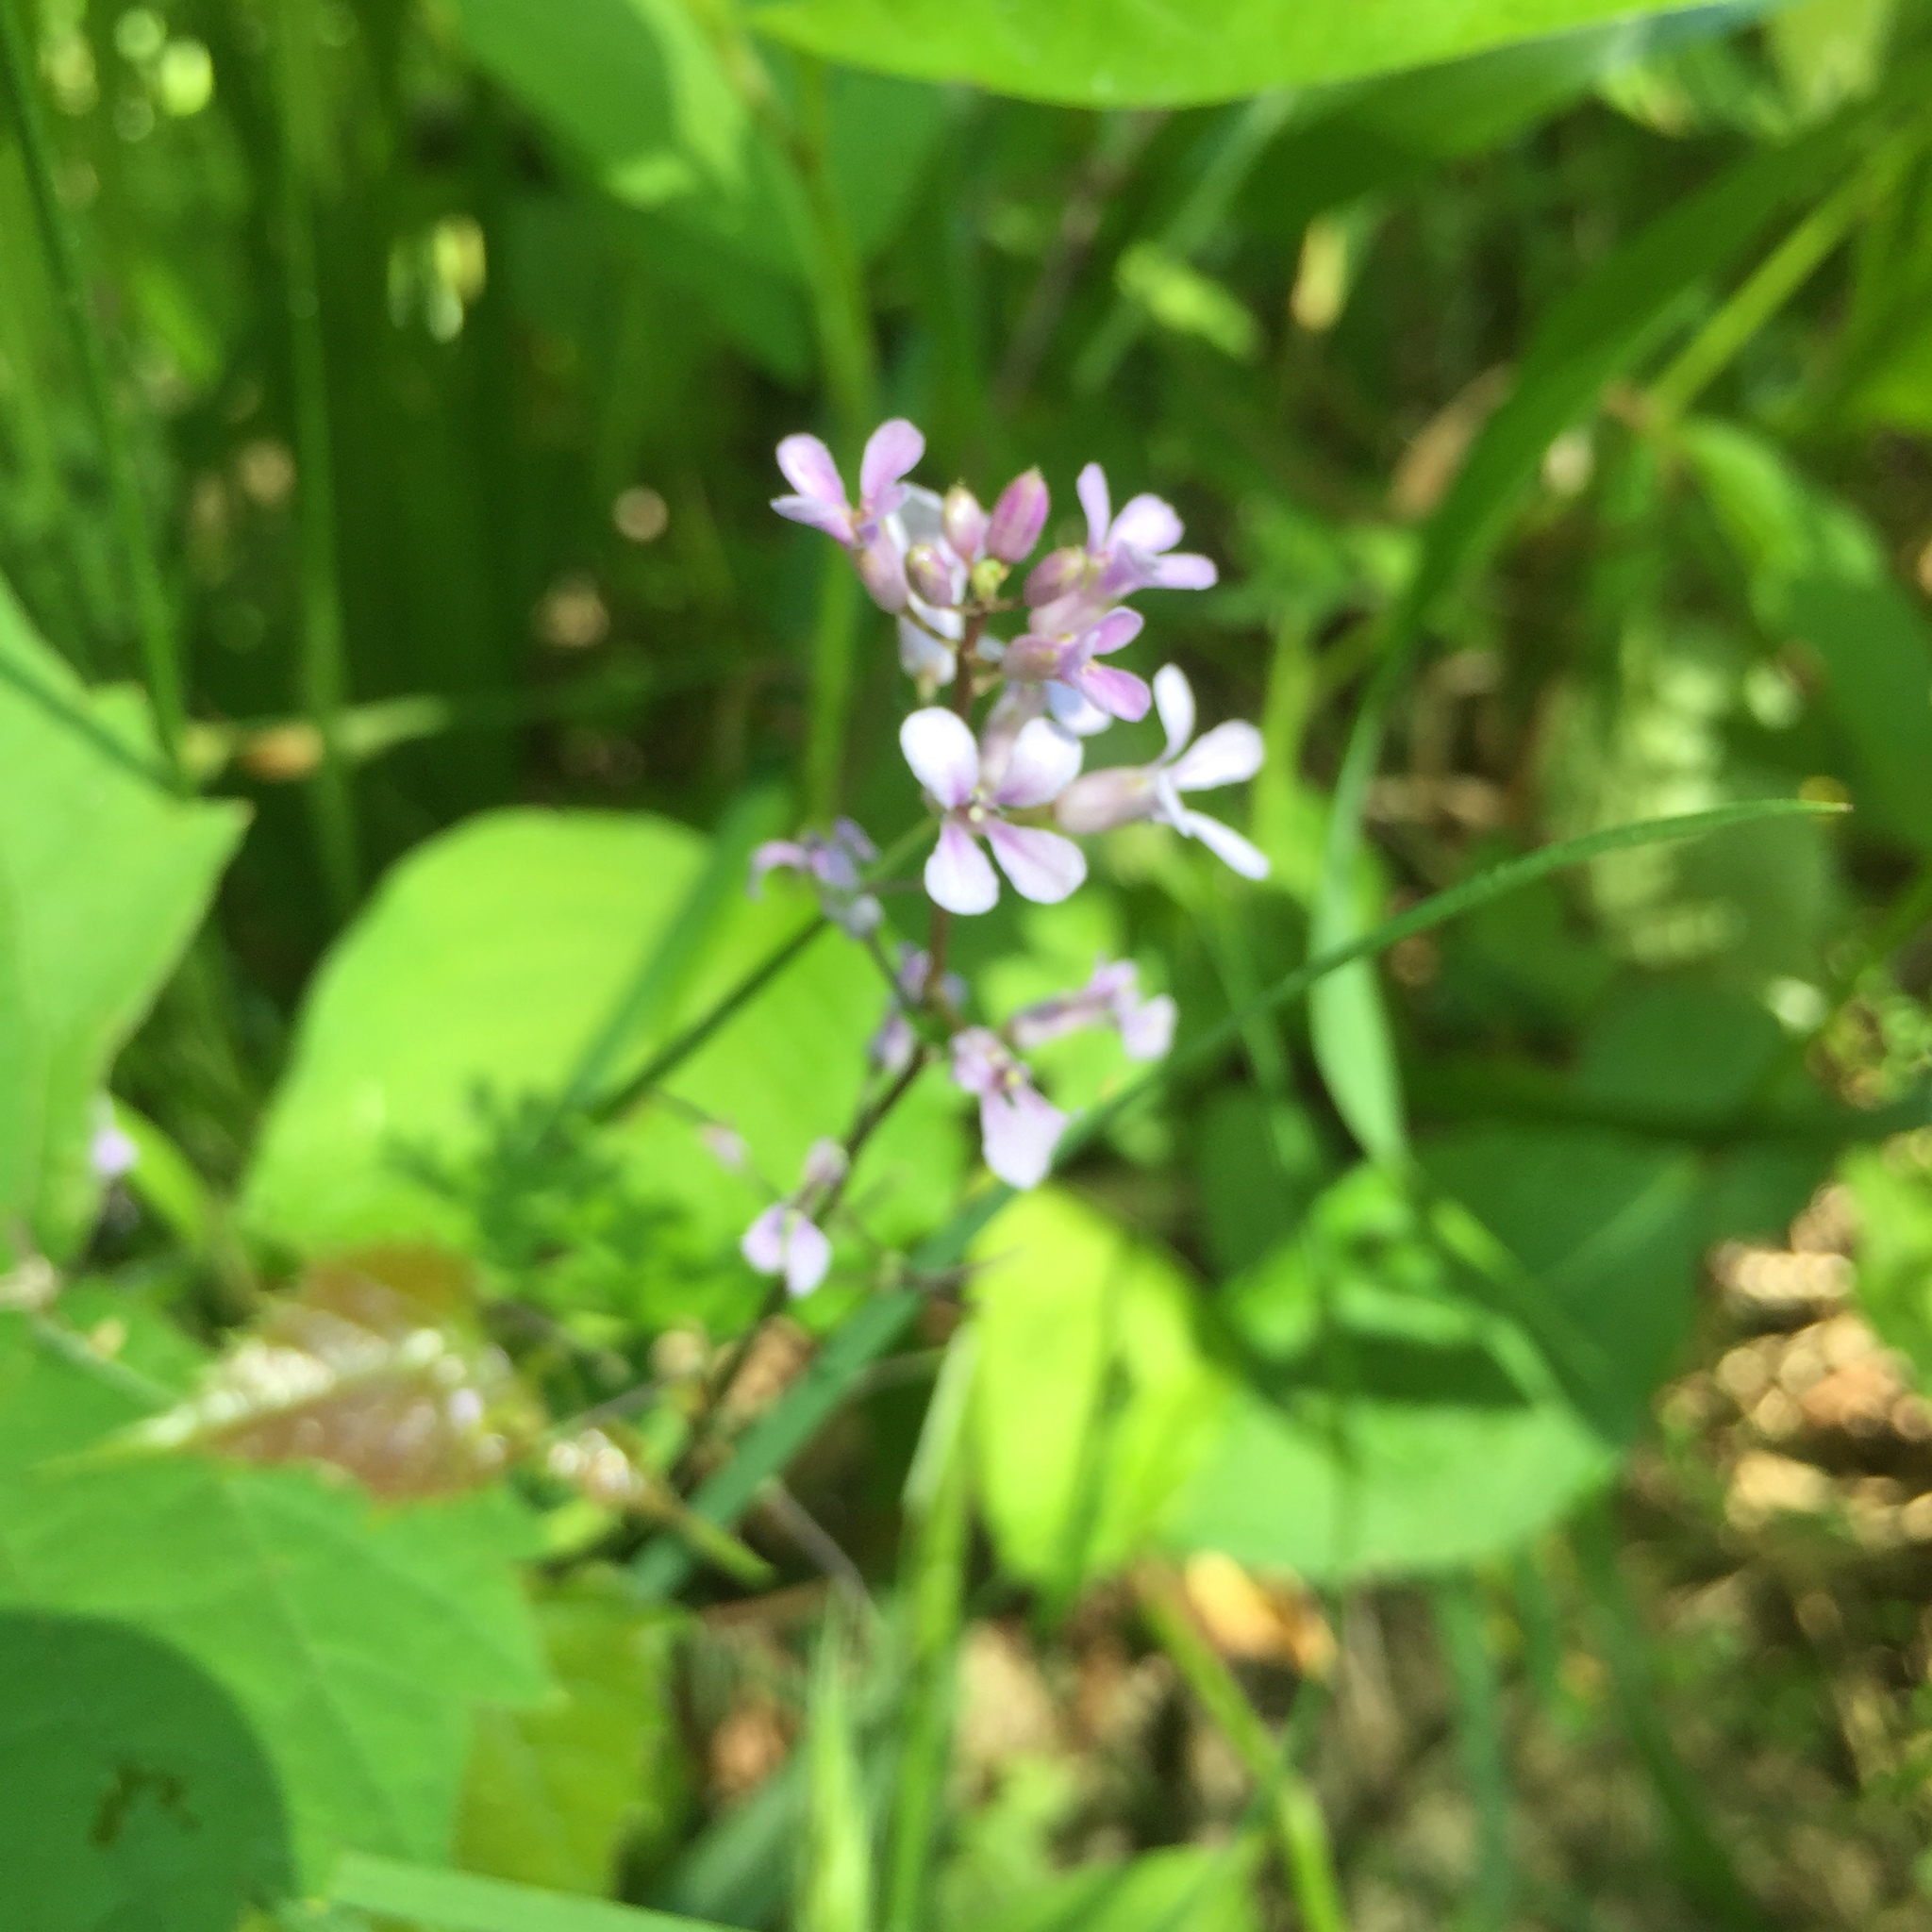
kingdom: Plantae
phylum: Tracheophyta
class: Magnoliopsida
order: Brassicales
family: Brassicaceae
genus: Iodanthus
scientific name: Iodanthus pinnatifidus
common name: Violet rocket
